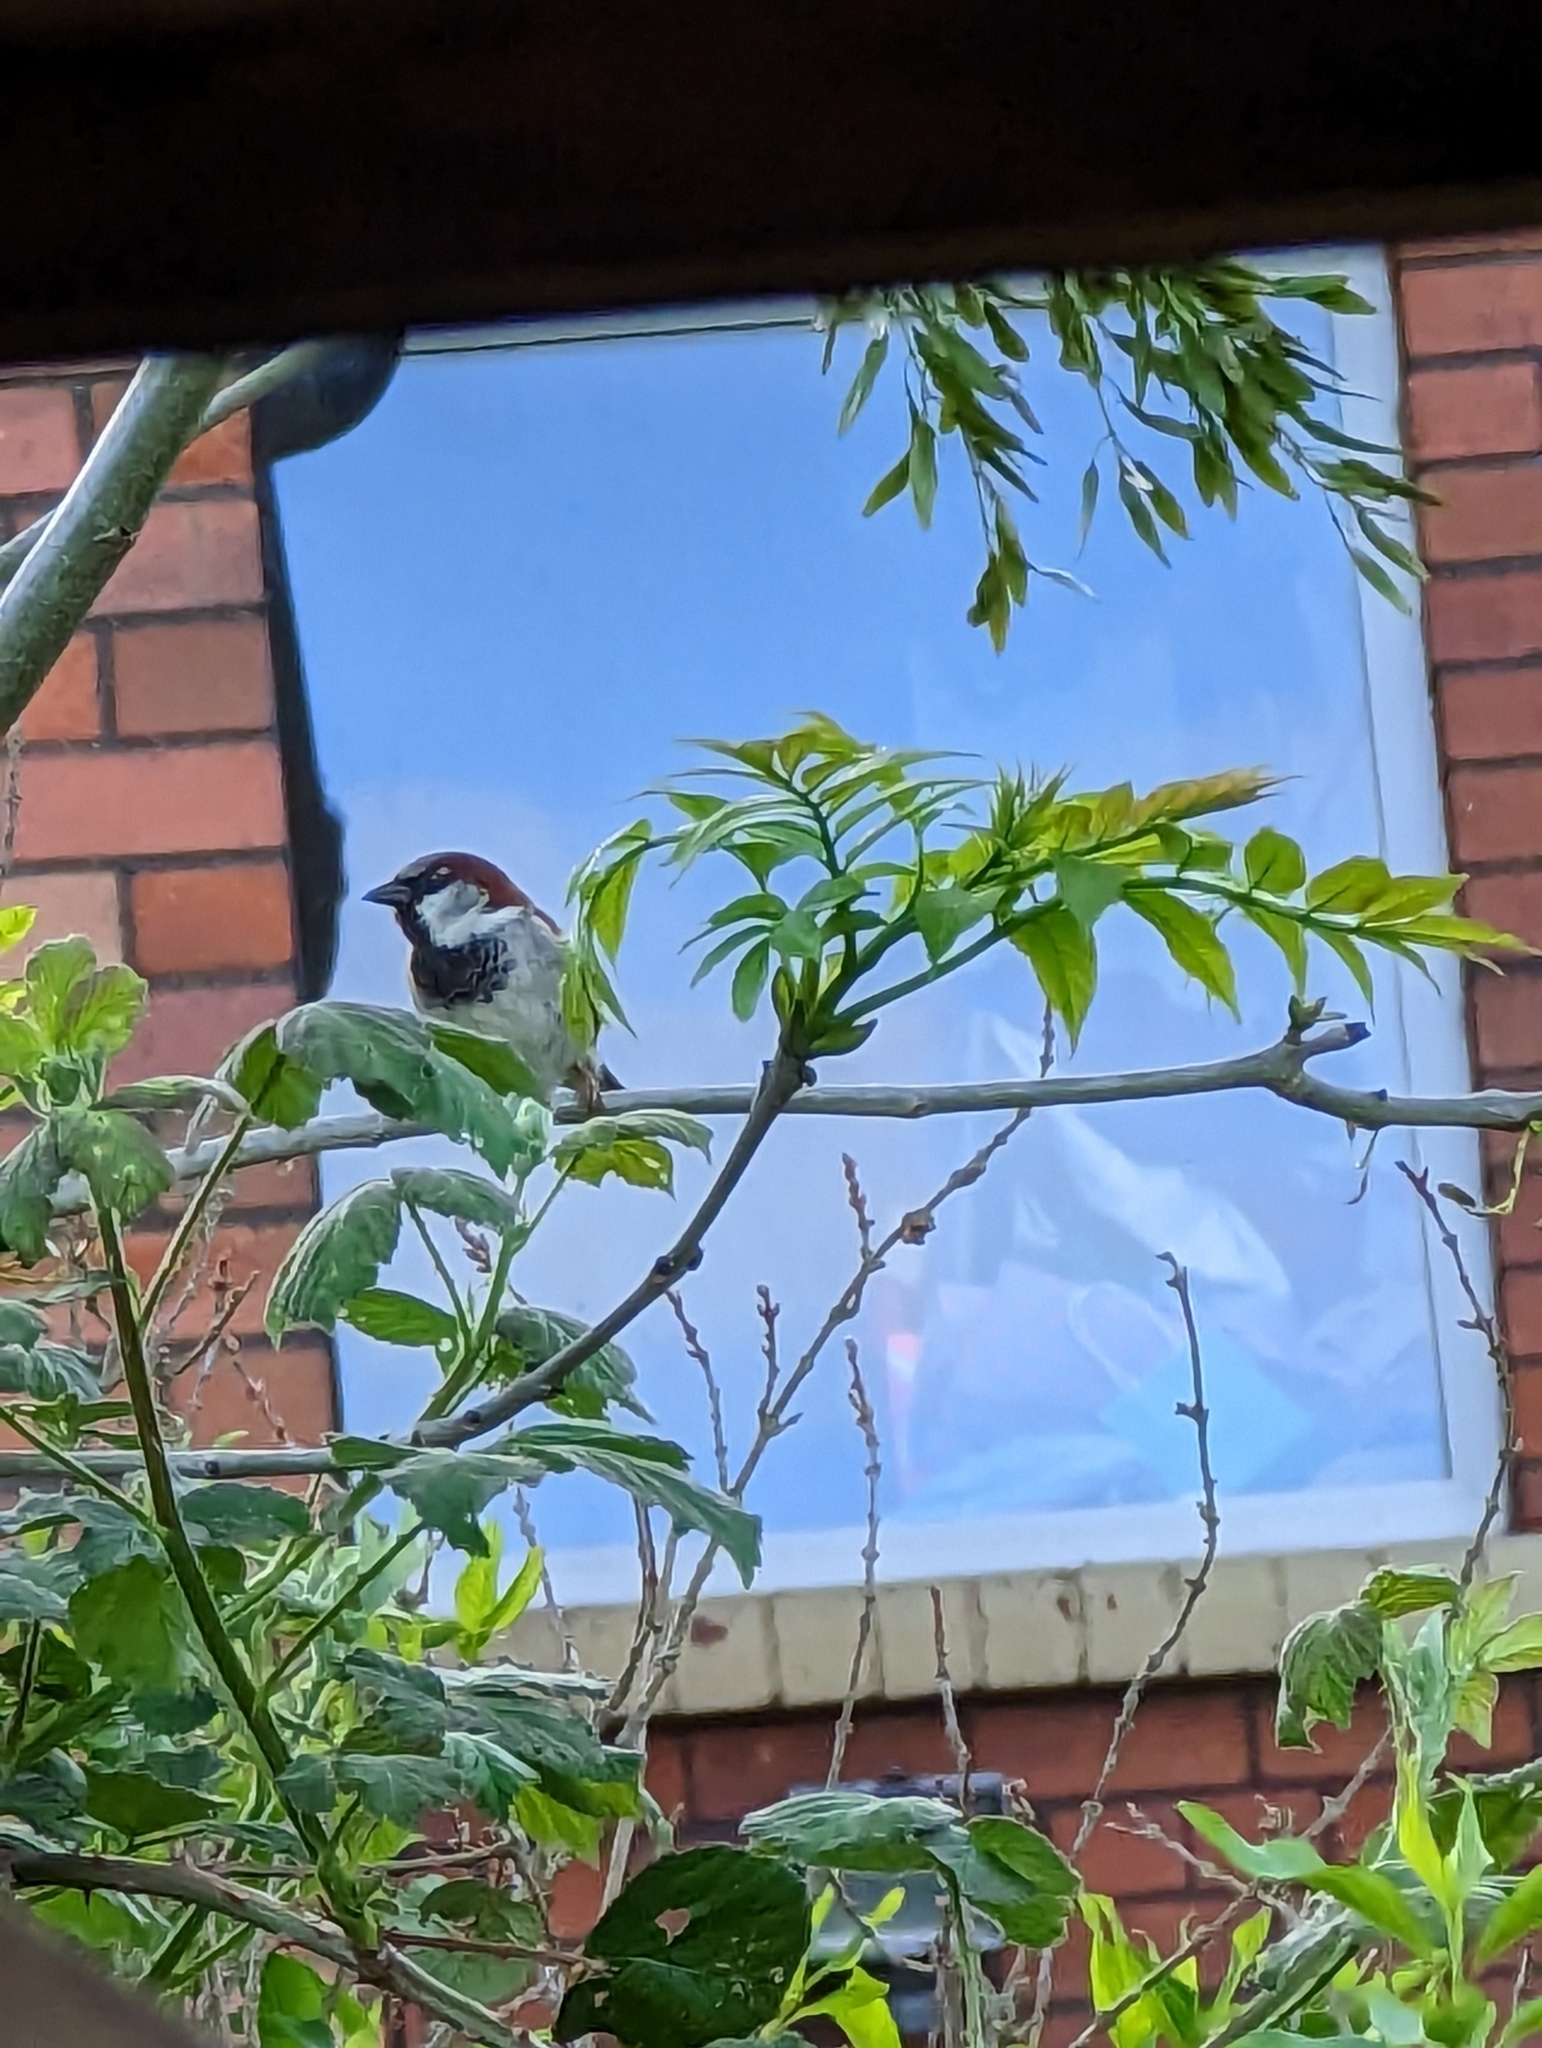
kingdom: Animalia
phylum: Chordata
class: Aves
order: Passeriformes
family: Passeridae
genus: Passer
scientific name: Passer domesticus
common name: House sparrow
